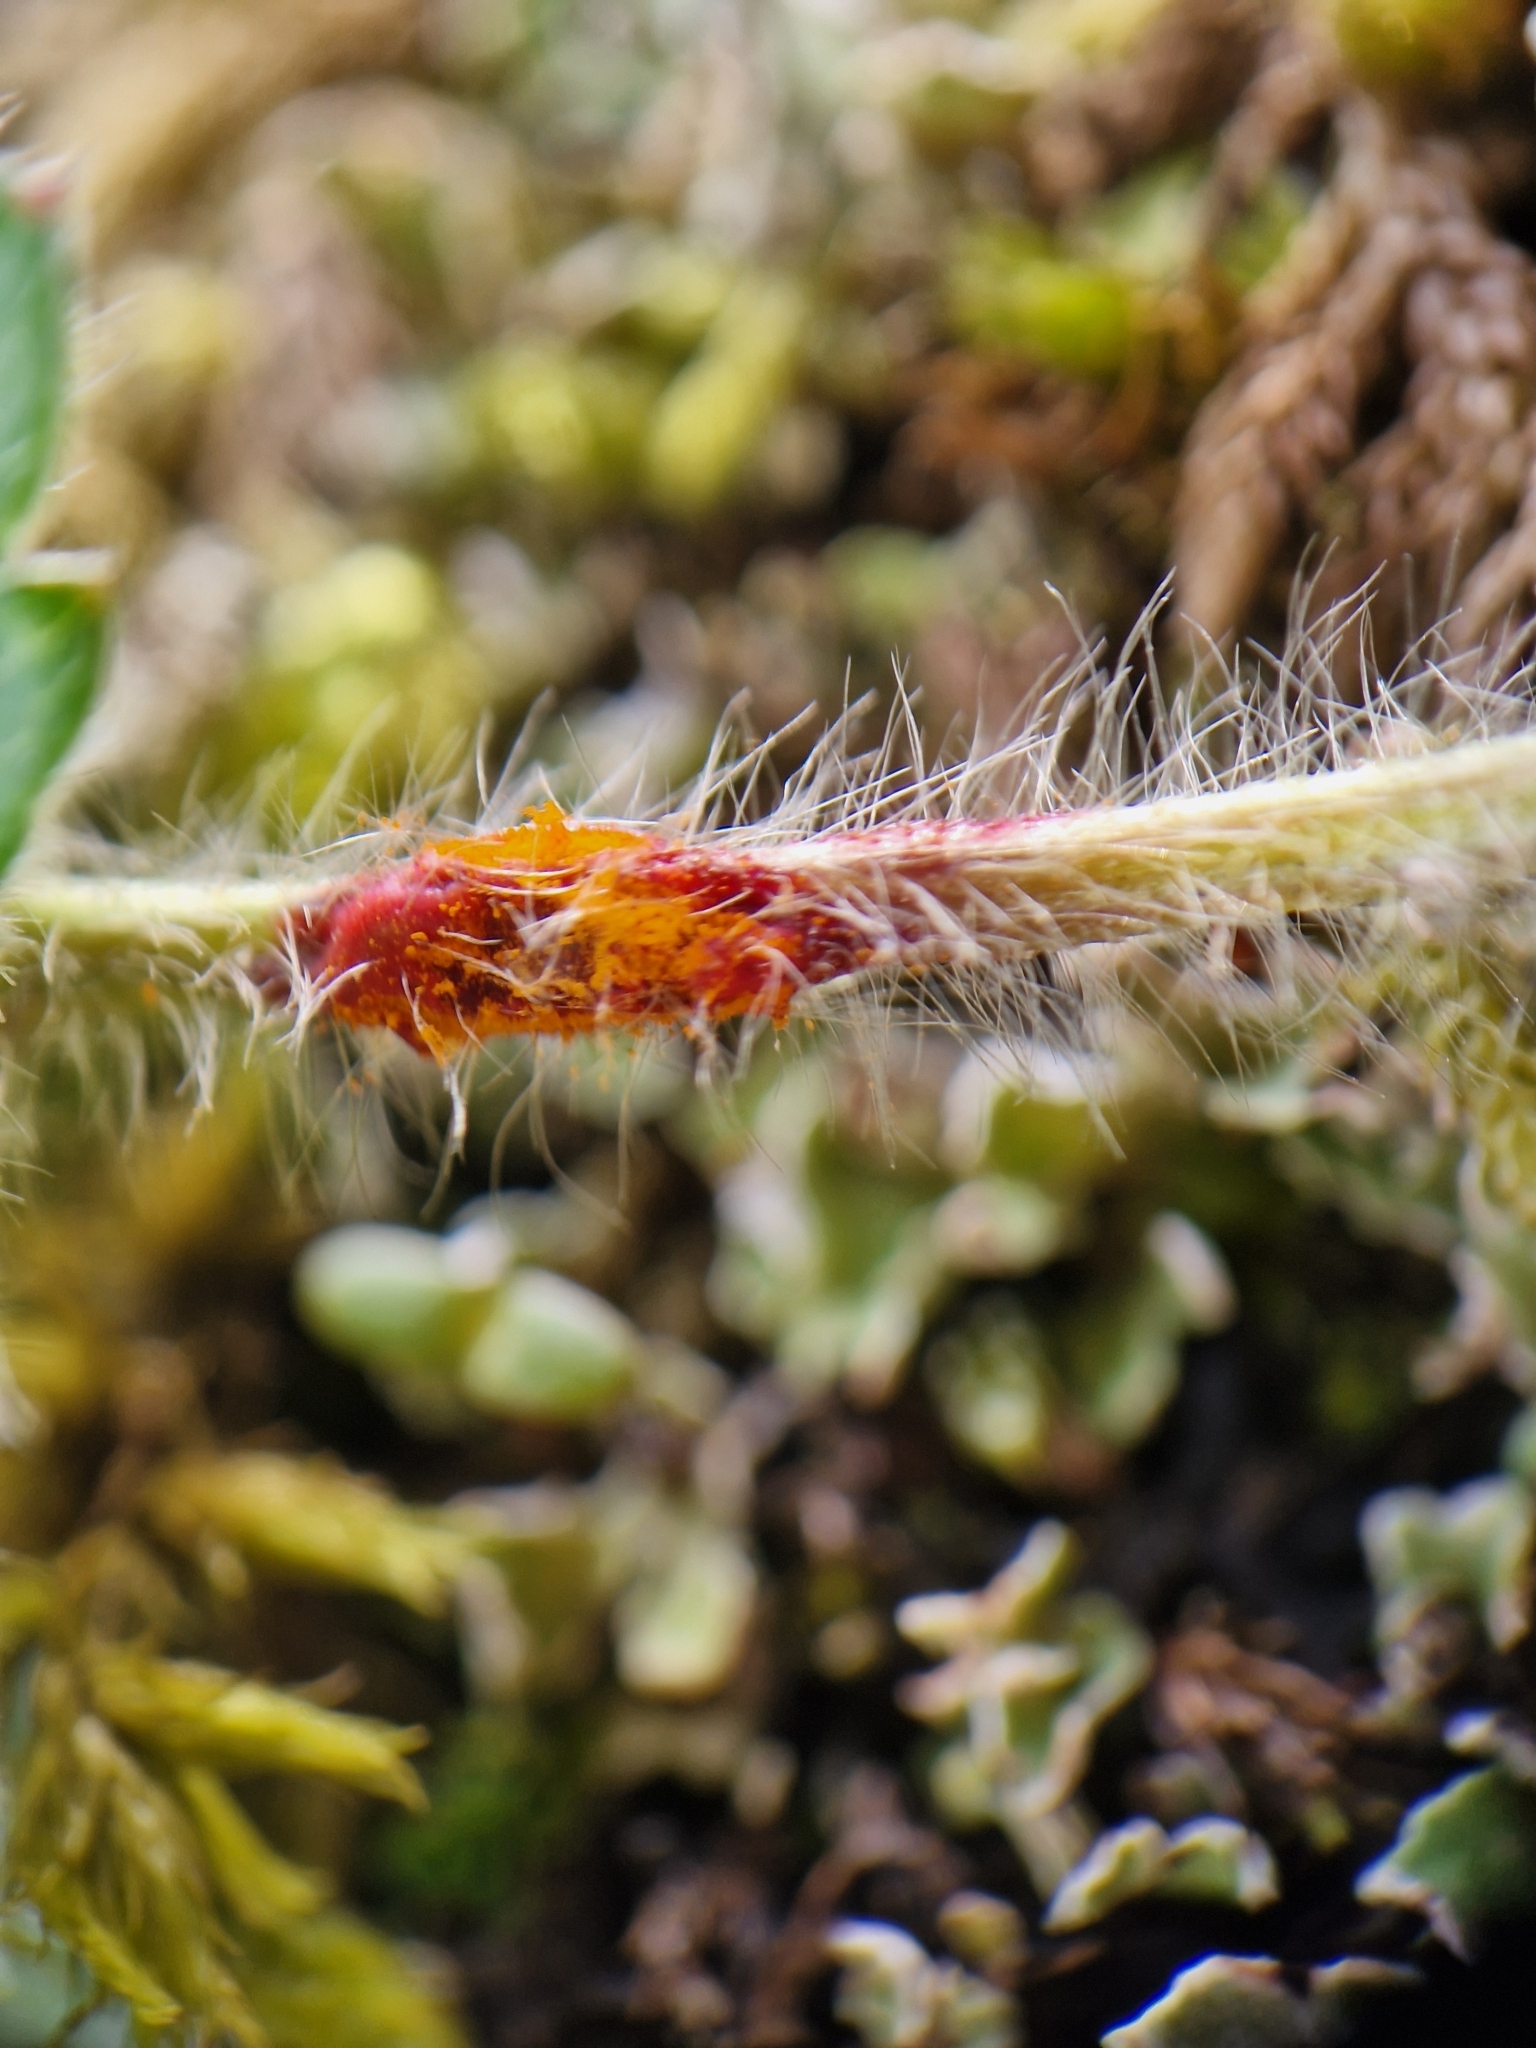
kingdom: Fungi
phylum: Basidiomycota
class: Pucciniomycetes
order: Pucciniales
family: Phragmidiaceae
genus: Phragmidium
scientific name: Phragmidium fragariae
